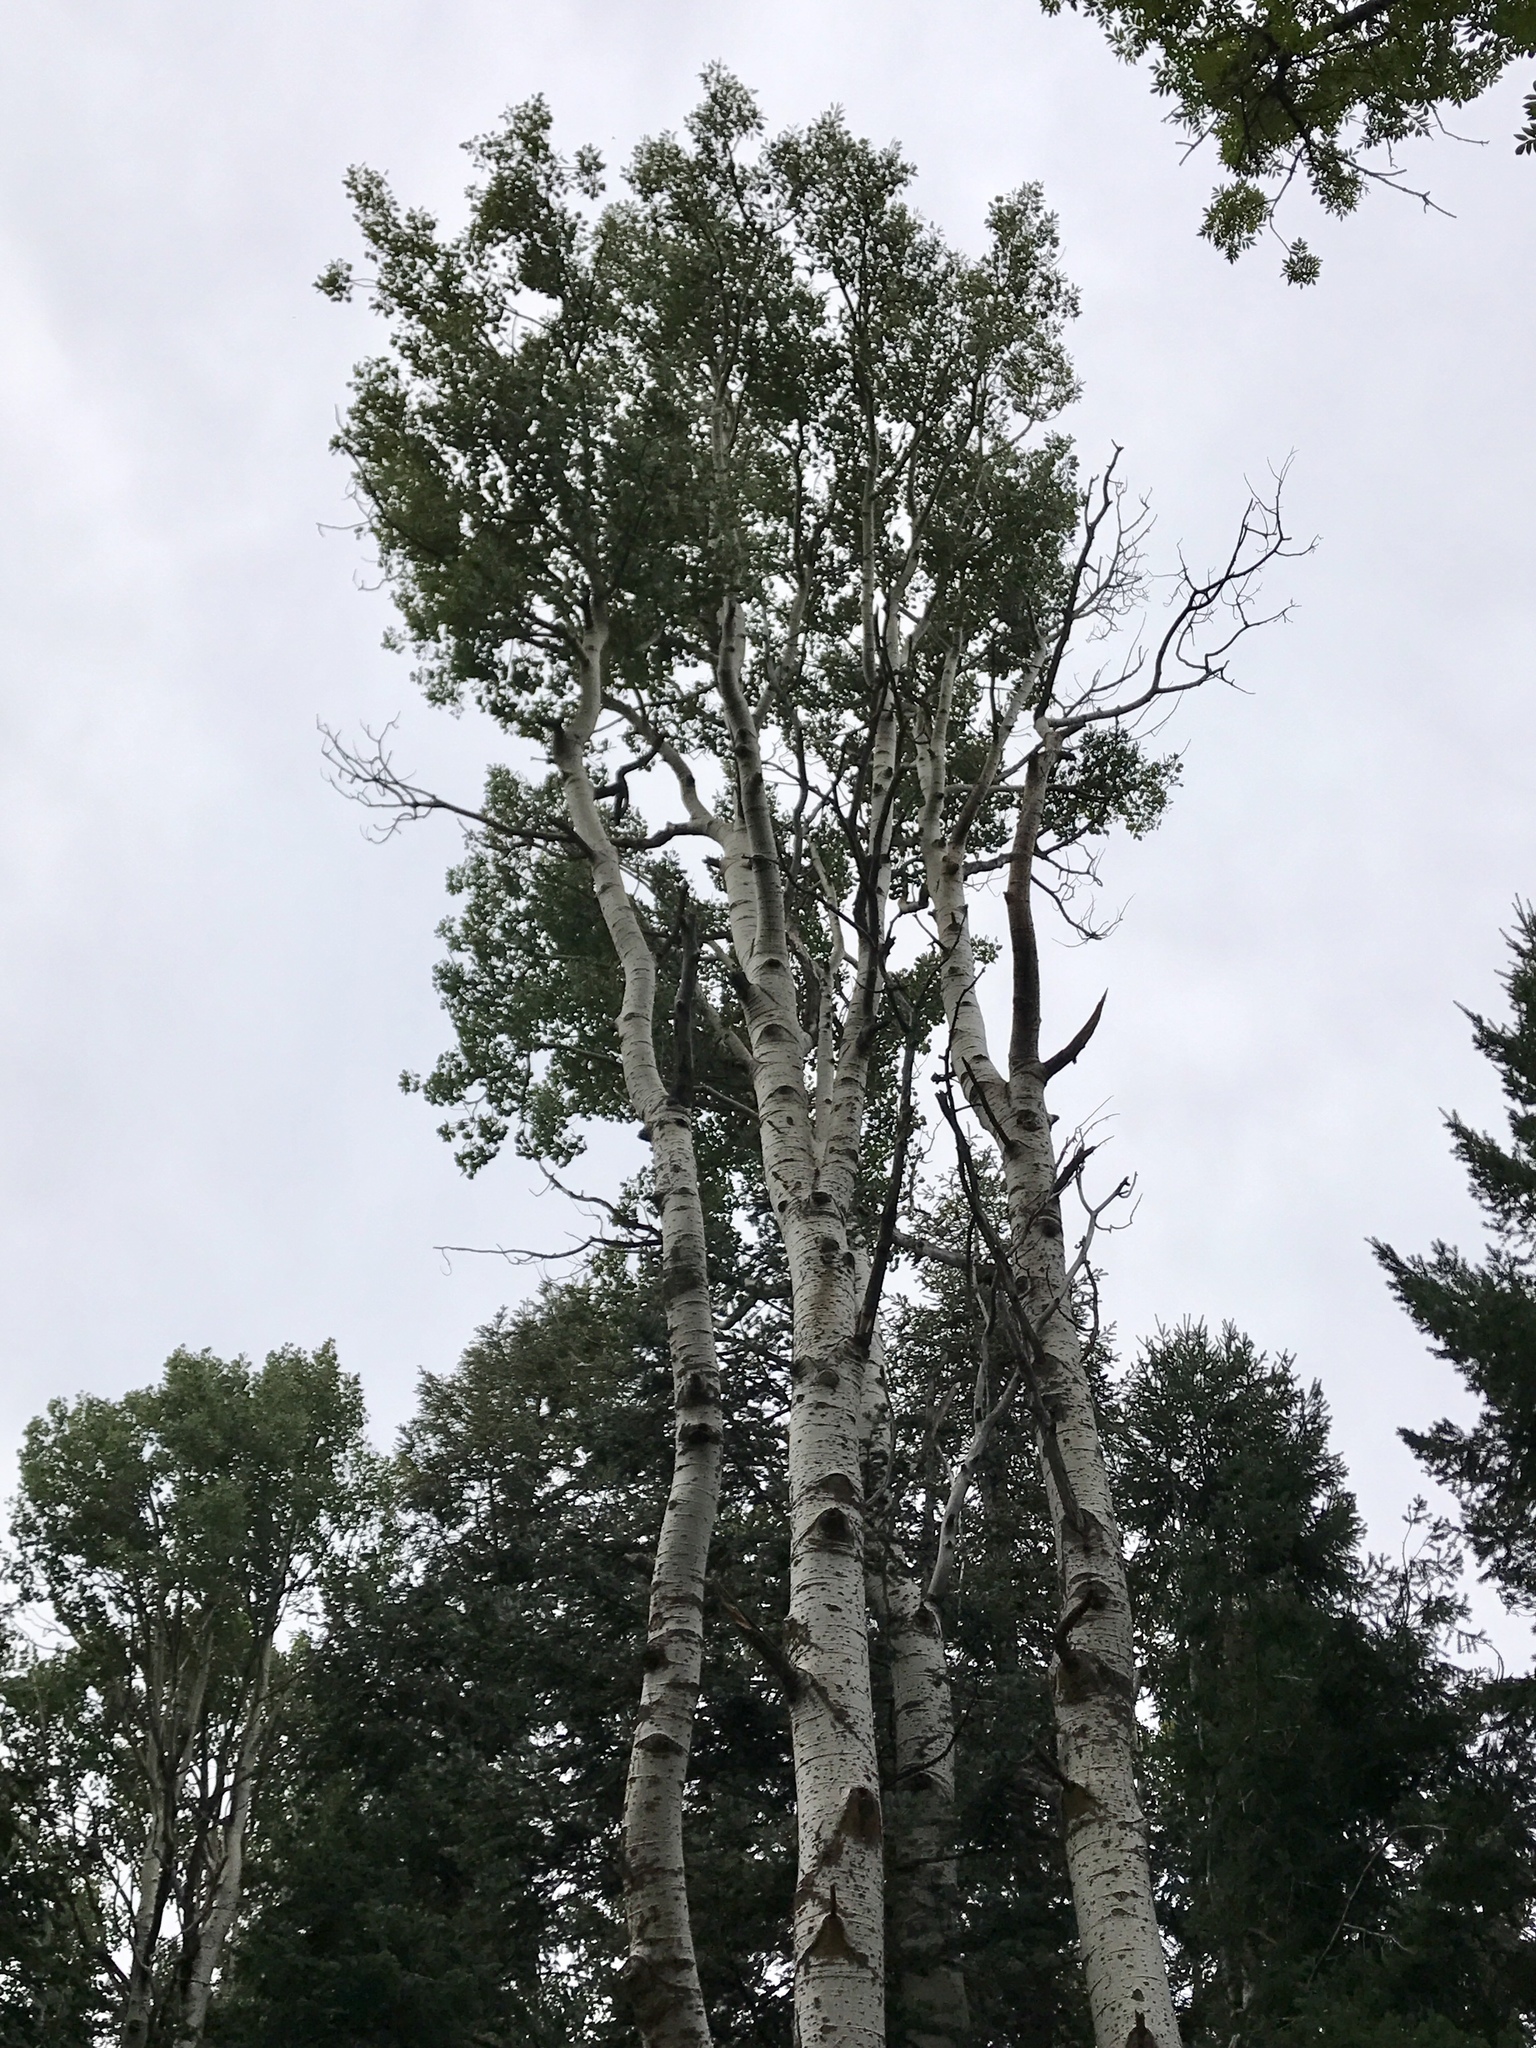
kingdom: Plantae
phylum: Tracheophyta
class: Magnoliopsida
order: Malpighiales
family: Salicaceae
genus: Populus
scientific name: Populus tremuloides
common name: Quaking aspen
